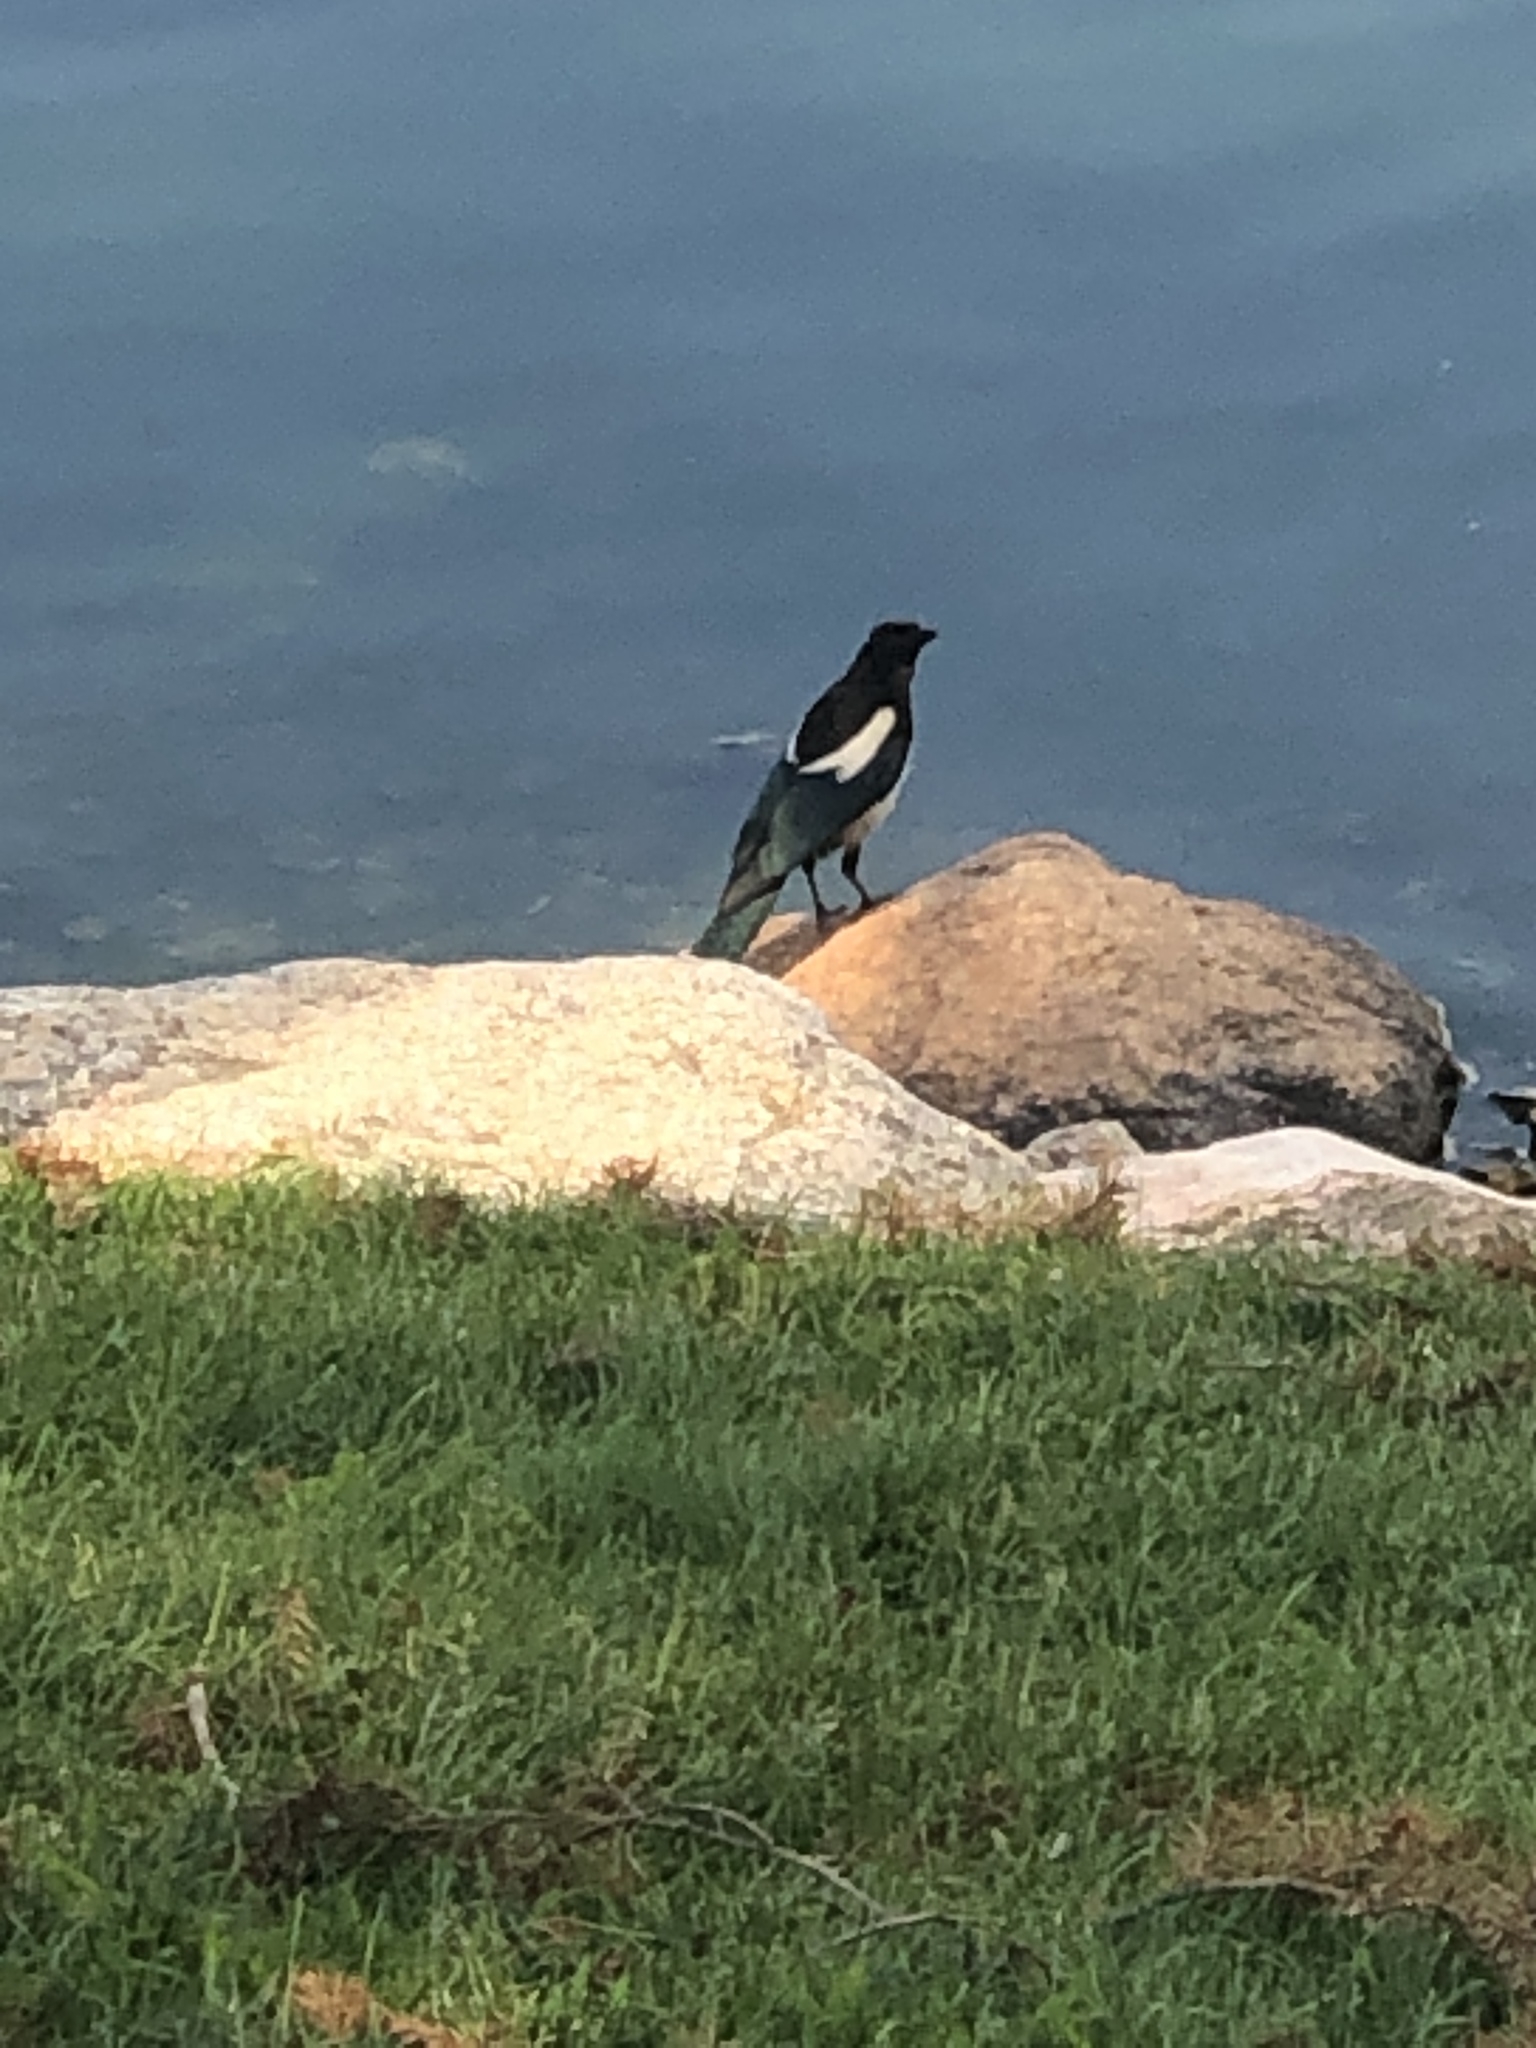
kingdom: Animalia
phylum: Chordata
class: Aves
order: Passeriformes
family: Corvidae
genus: Pica
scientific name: Pica hudsonia
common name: Black-billed magpie
